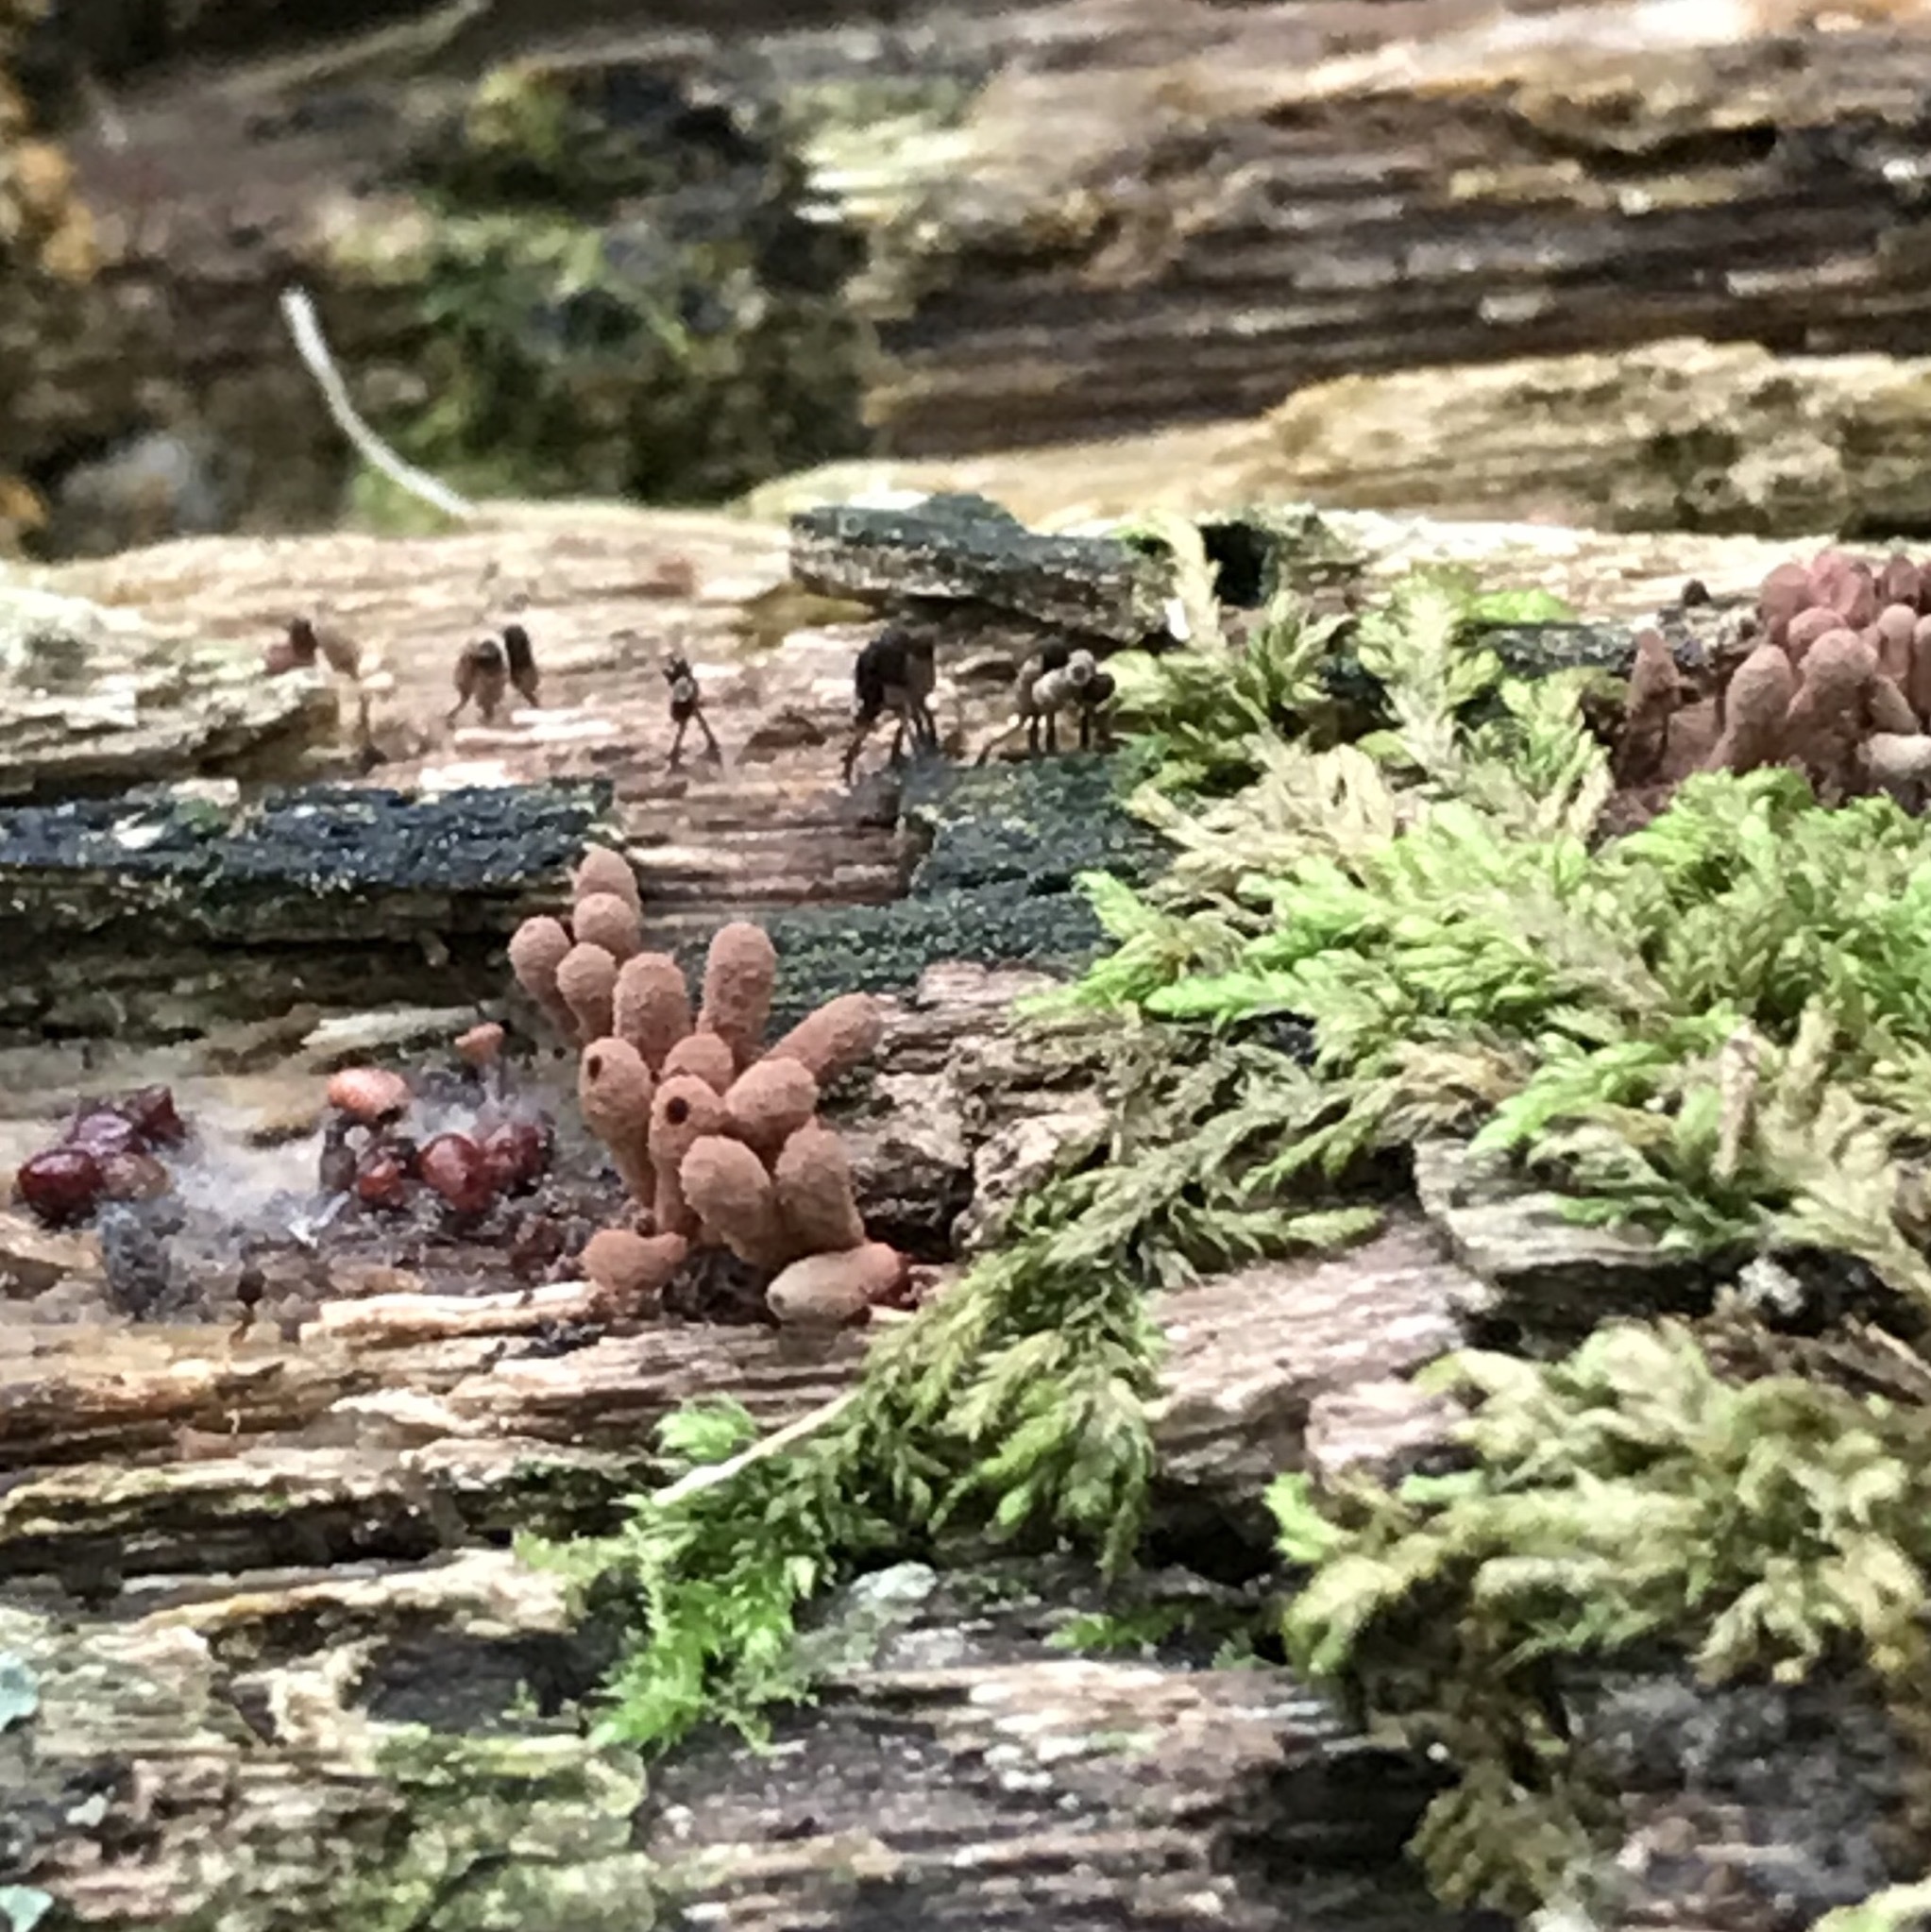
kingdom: Protozoa
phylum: Mycetozoa
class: Myxomycetes
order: Trichiales
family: Arcyriaceae
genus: Arcyria
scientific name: Arcyria denudata
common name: Carnival candy slime mold
